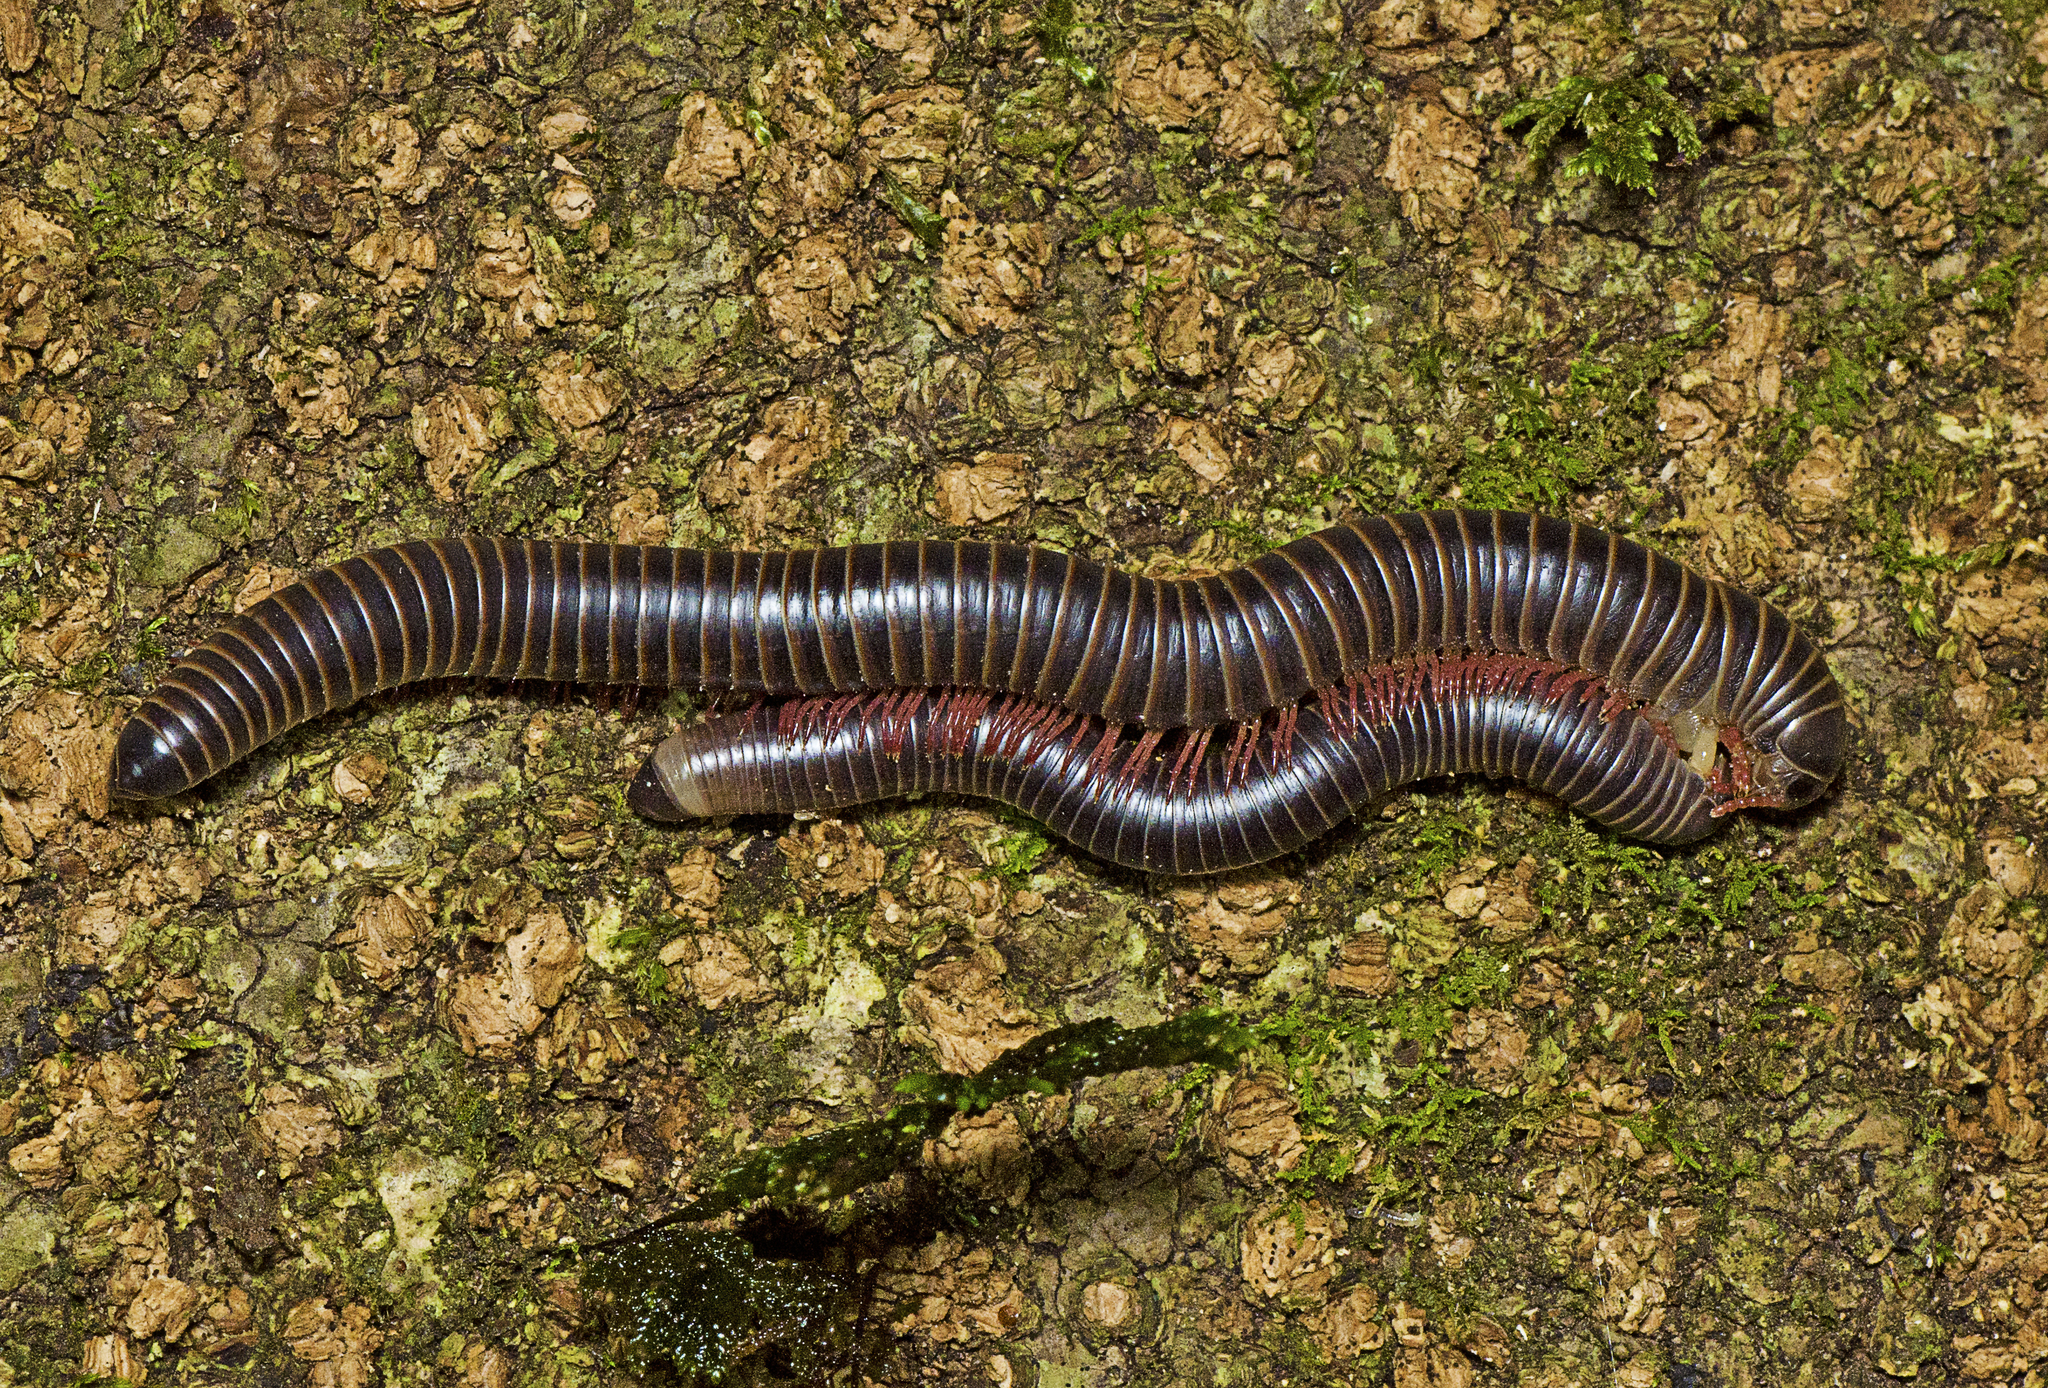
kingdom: Animalia
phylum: Arthropoda
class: Diplopoda
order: Spirobolida
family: Rhinocricidae
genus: Australocricus
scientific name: Australocricus perditus
